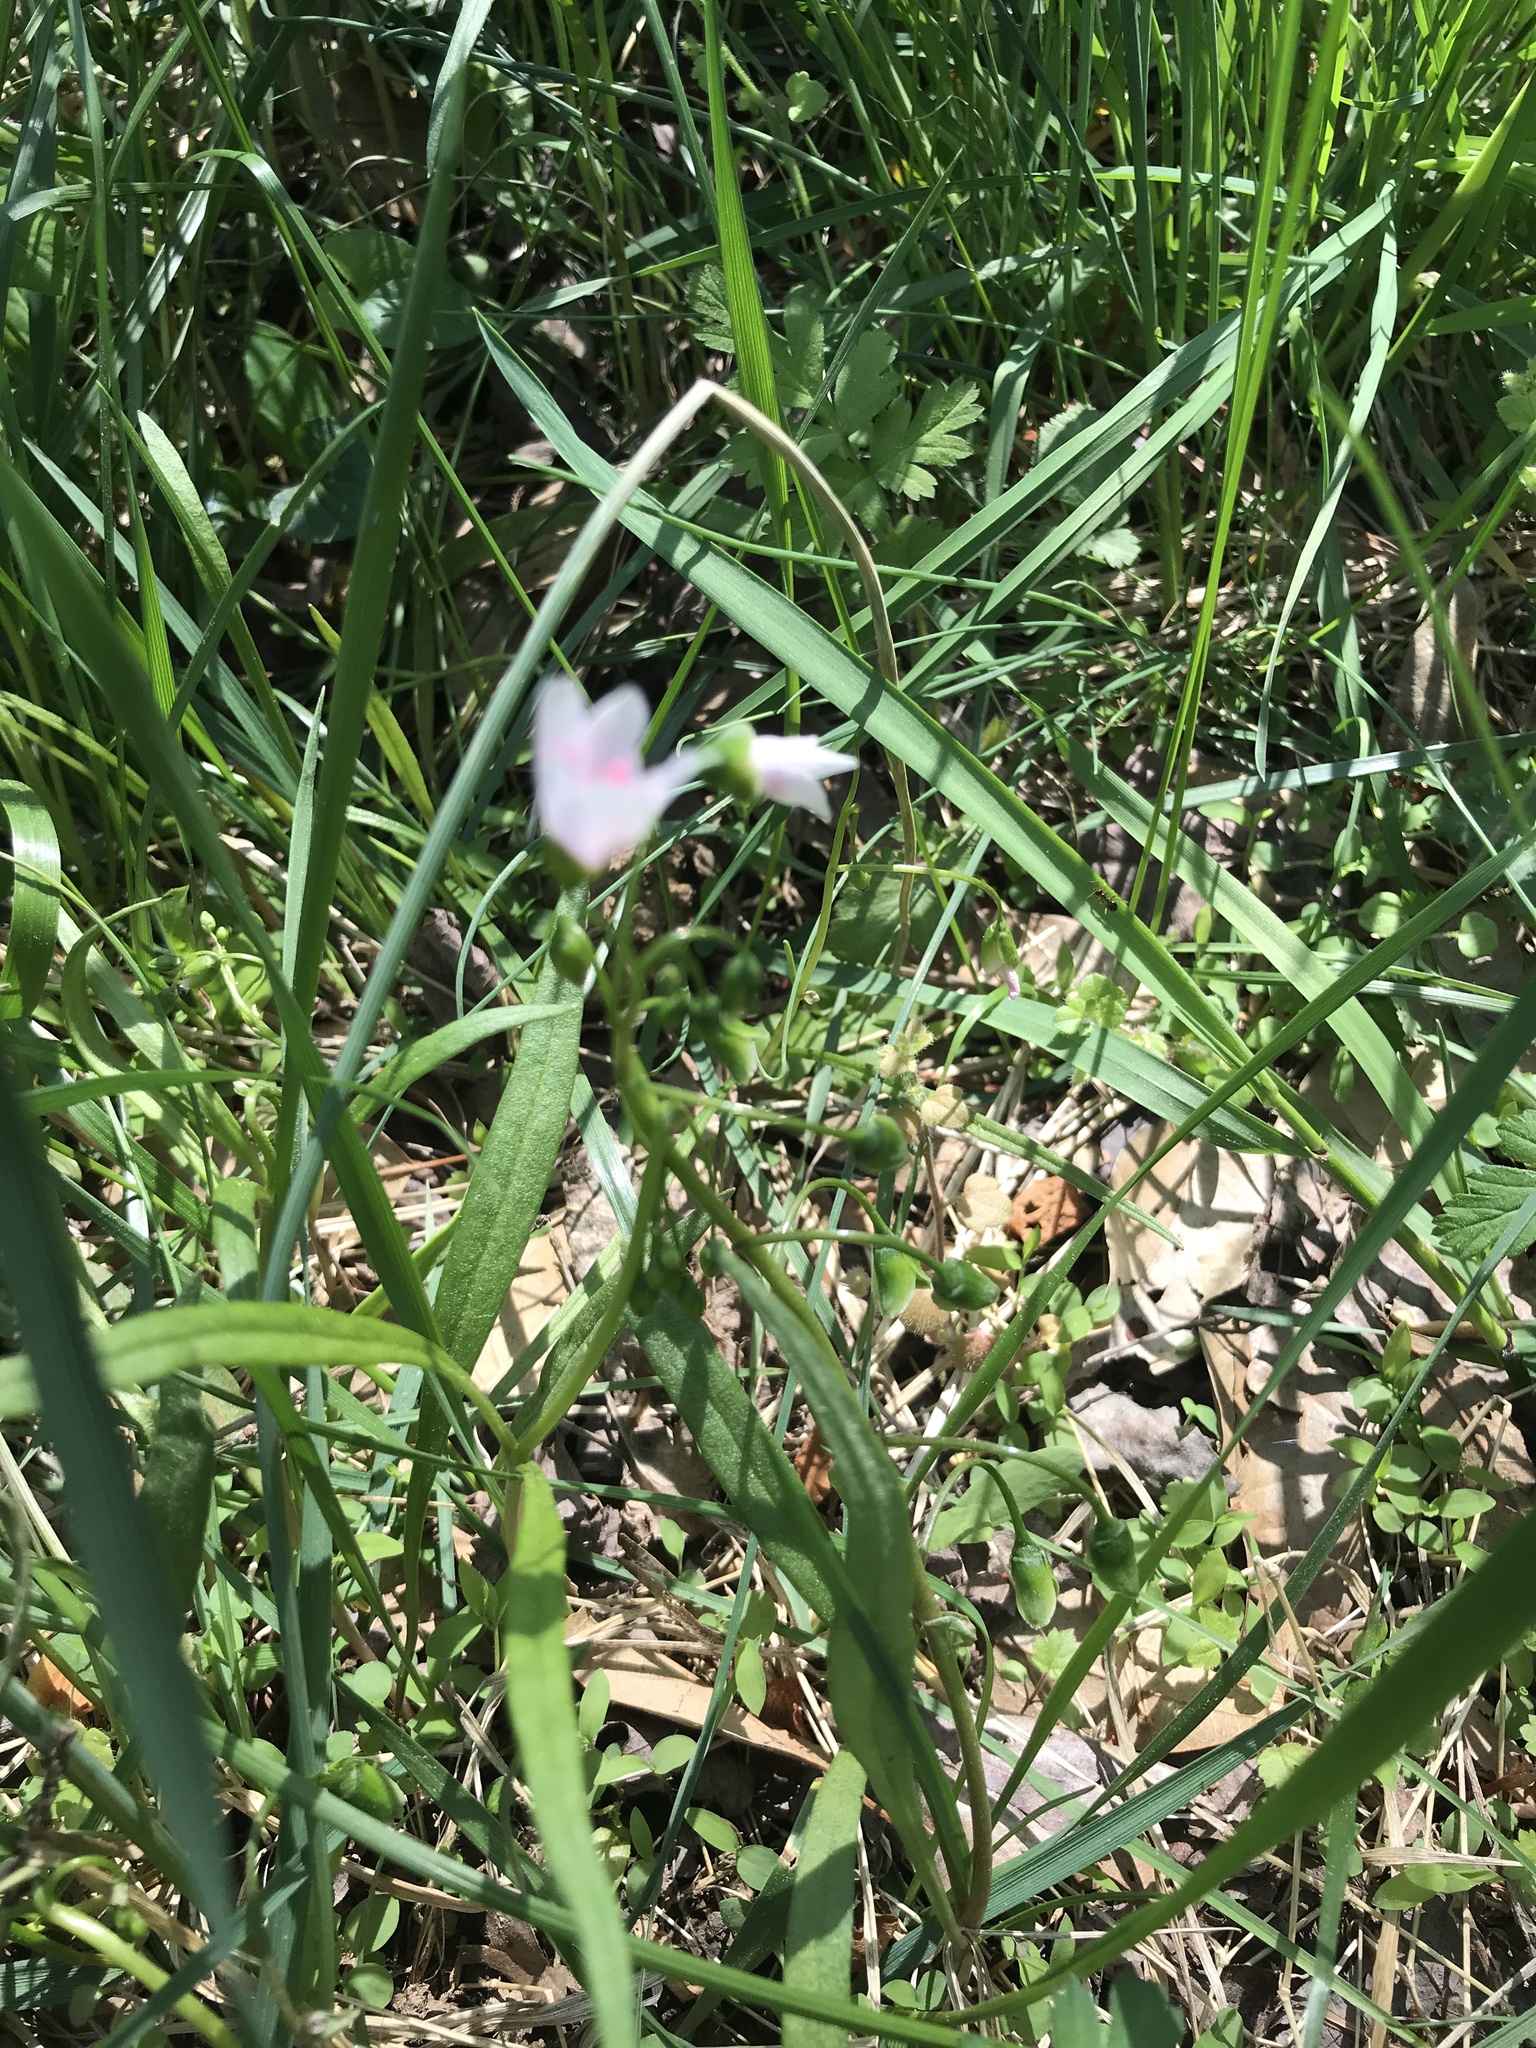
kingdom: Plantae
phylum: Tracheophyta
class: Magnoliopsida
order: Caryophyllales
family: Montiaceae
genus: Claytonia
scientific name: Claytonia virginica
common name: Virginia springbeauty
